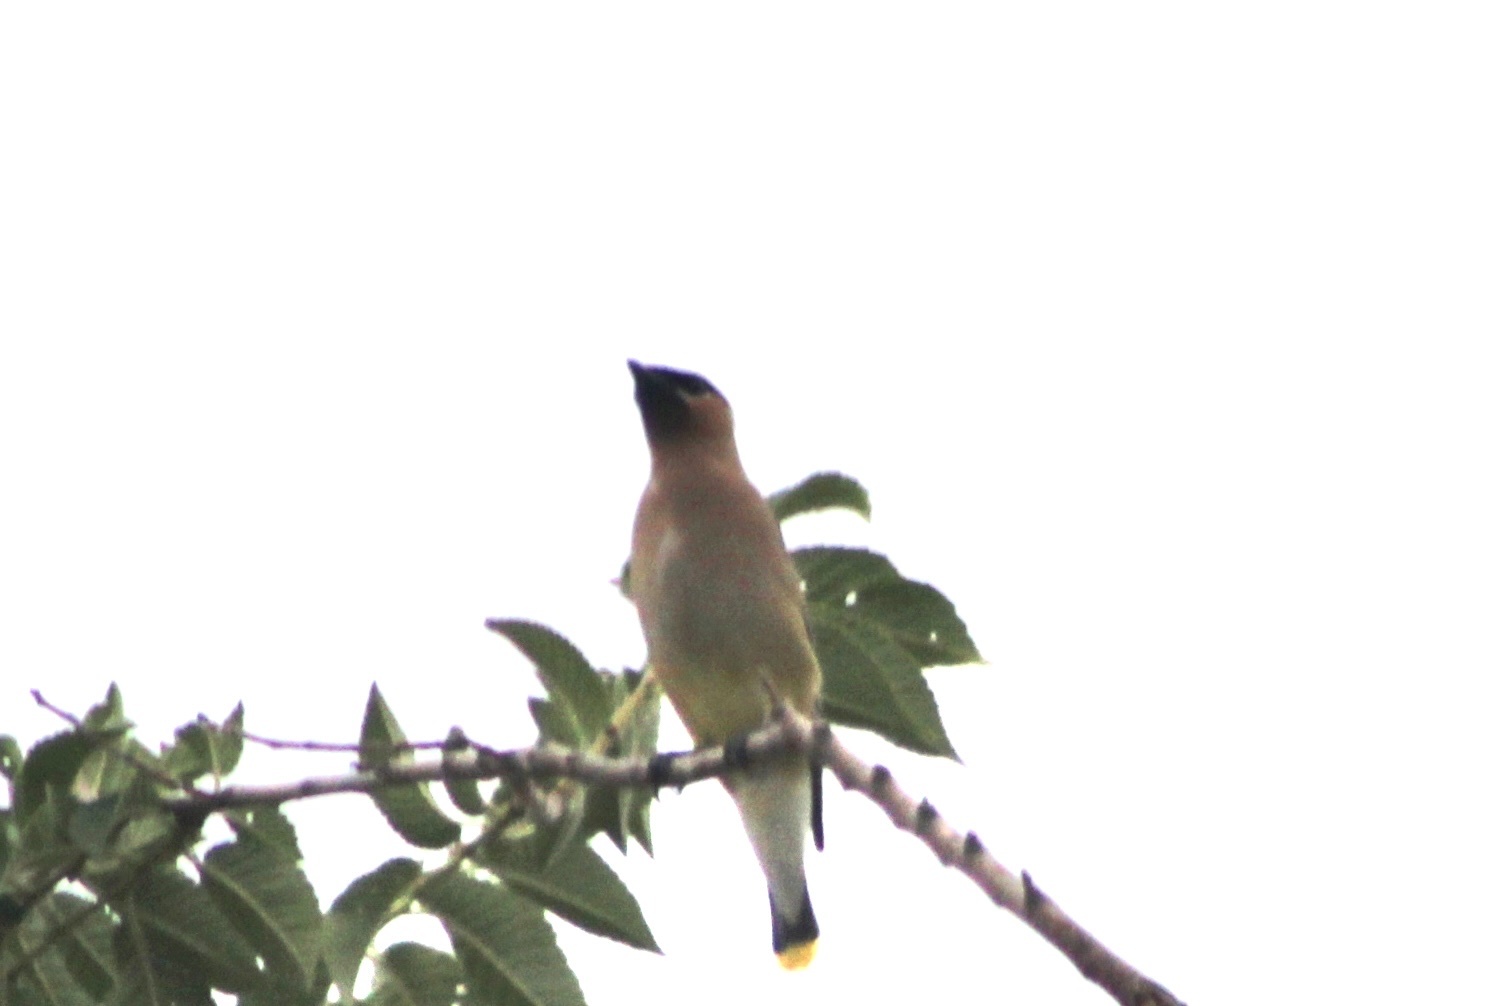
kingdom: Animalia
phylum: Chordata
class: Aves
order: Passeriformes
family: Bombycillidae
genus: Bombycilla
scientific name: Bombycilla cedrorum
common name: Cedar waxwing
